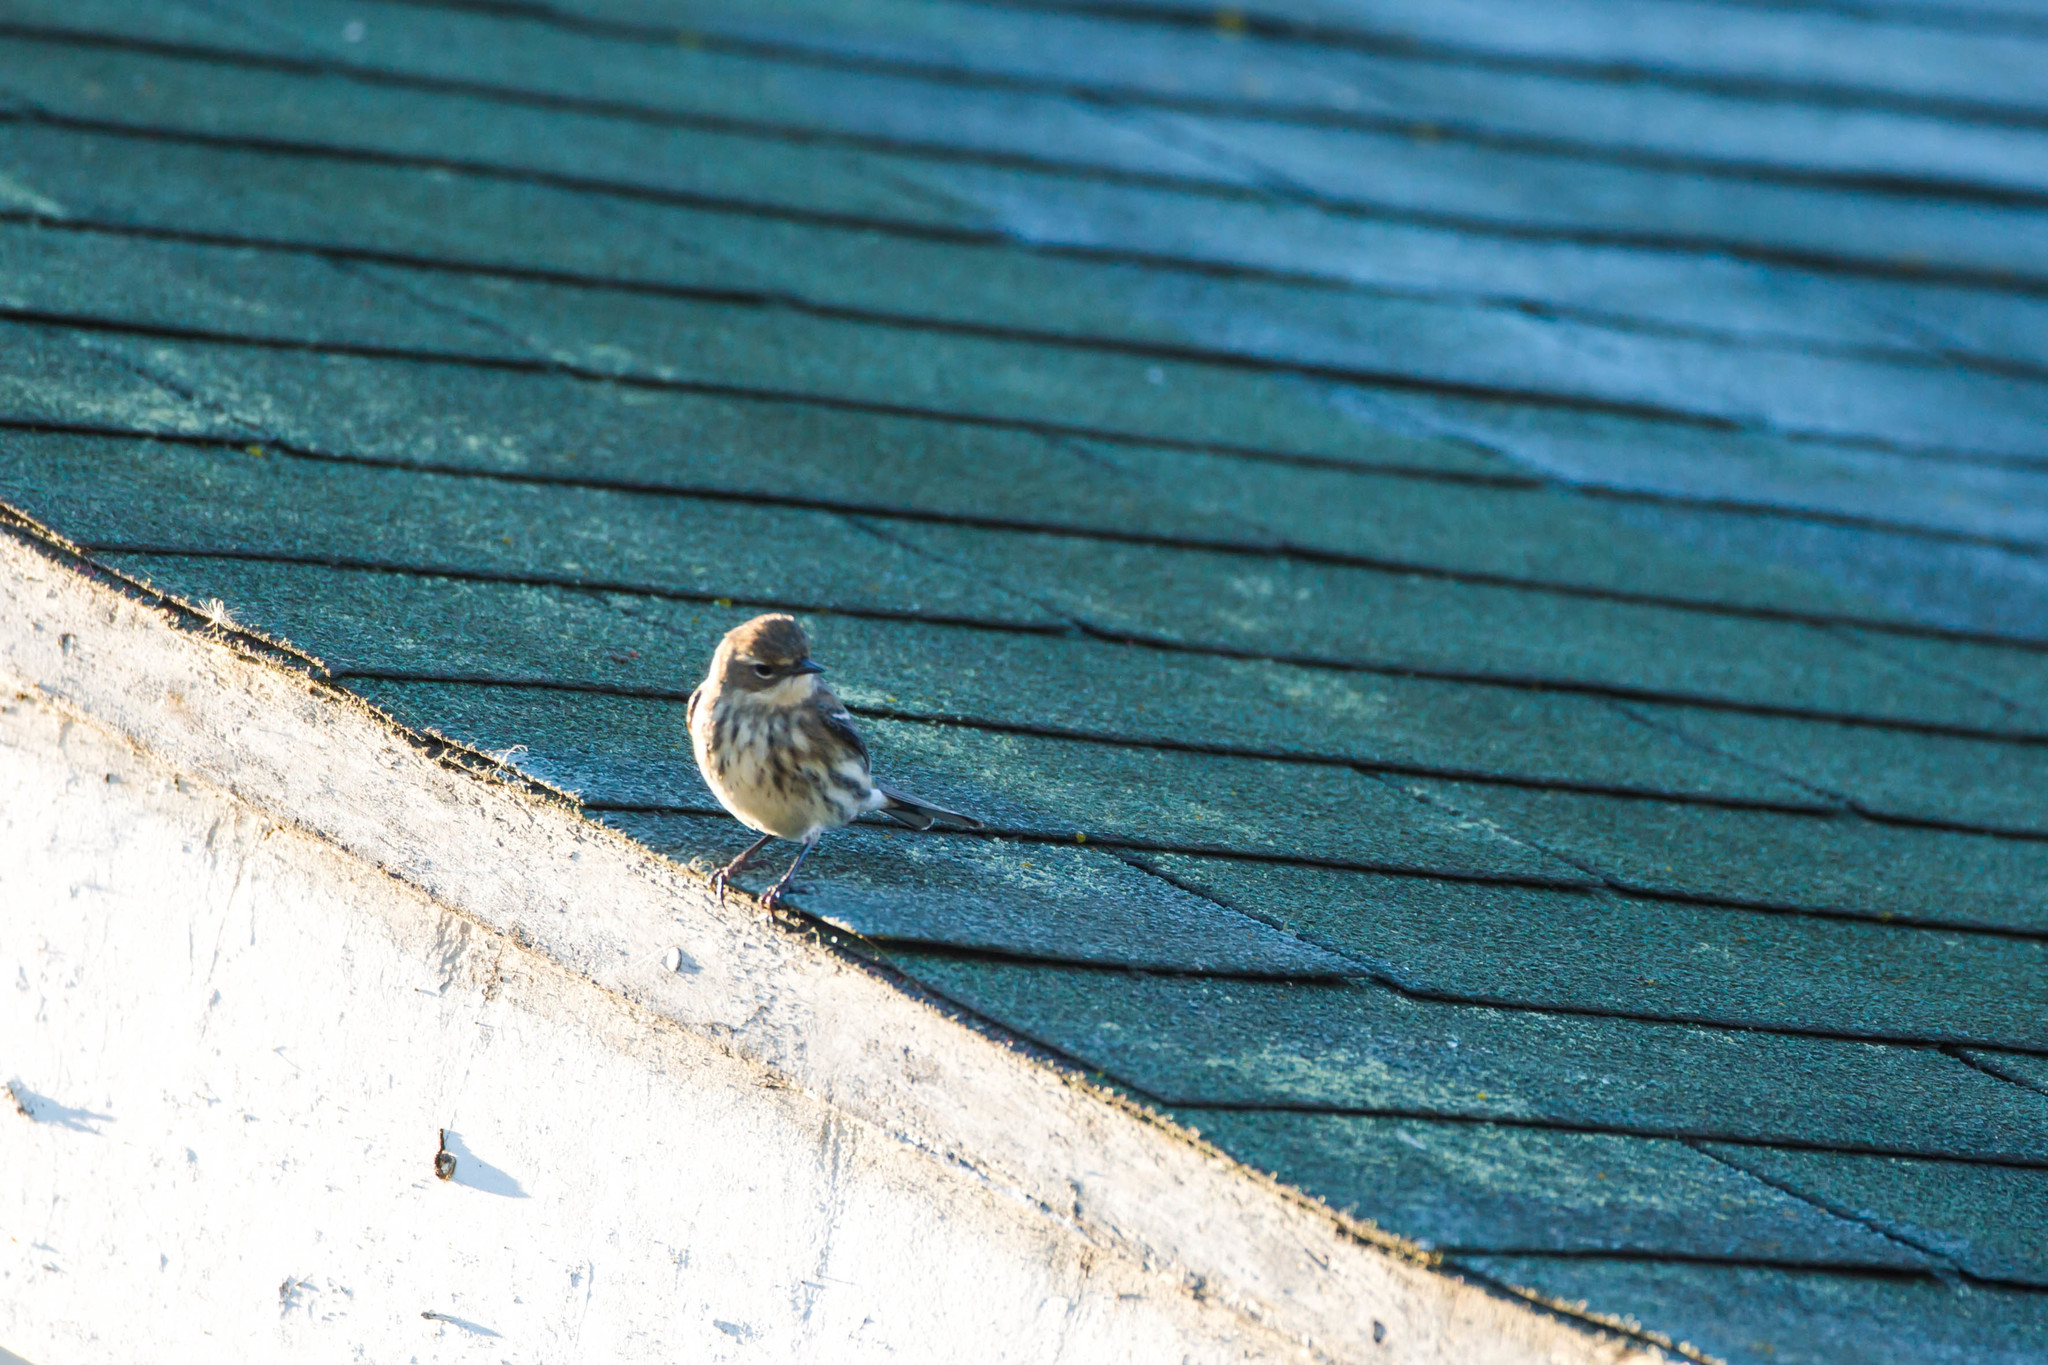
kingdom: Animalia
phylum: Chordata
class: Aves
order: Passeriformes
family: Parulidae
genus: Setophaga
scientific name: Setophaga coronata
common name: Myrtle warbler
